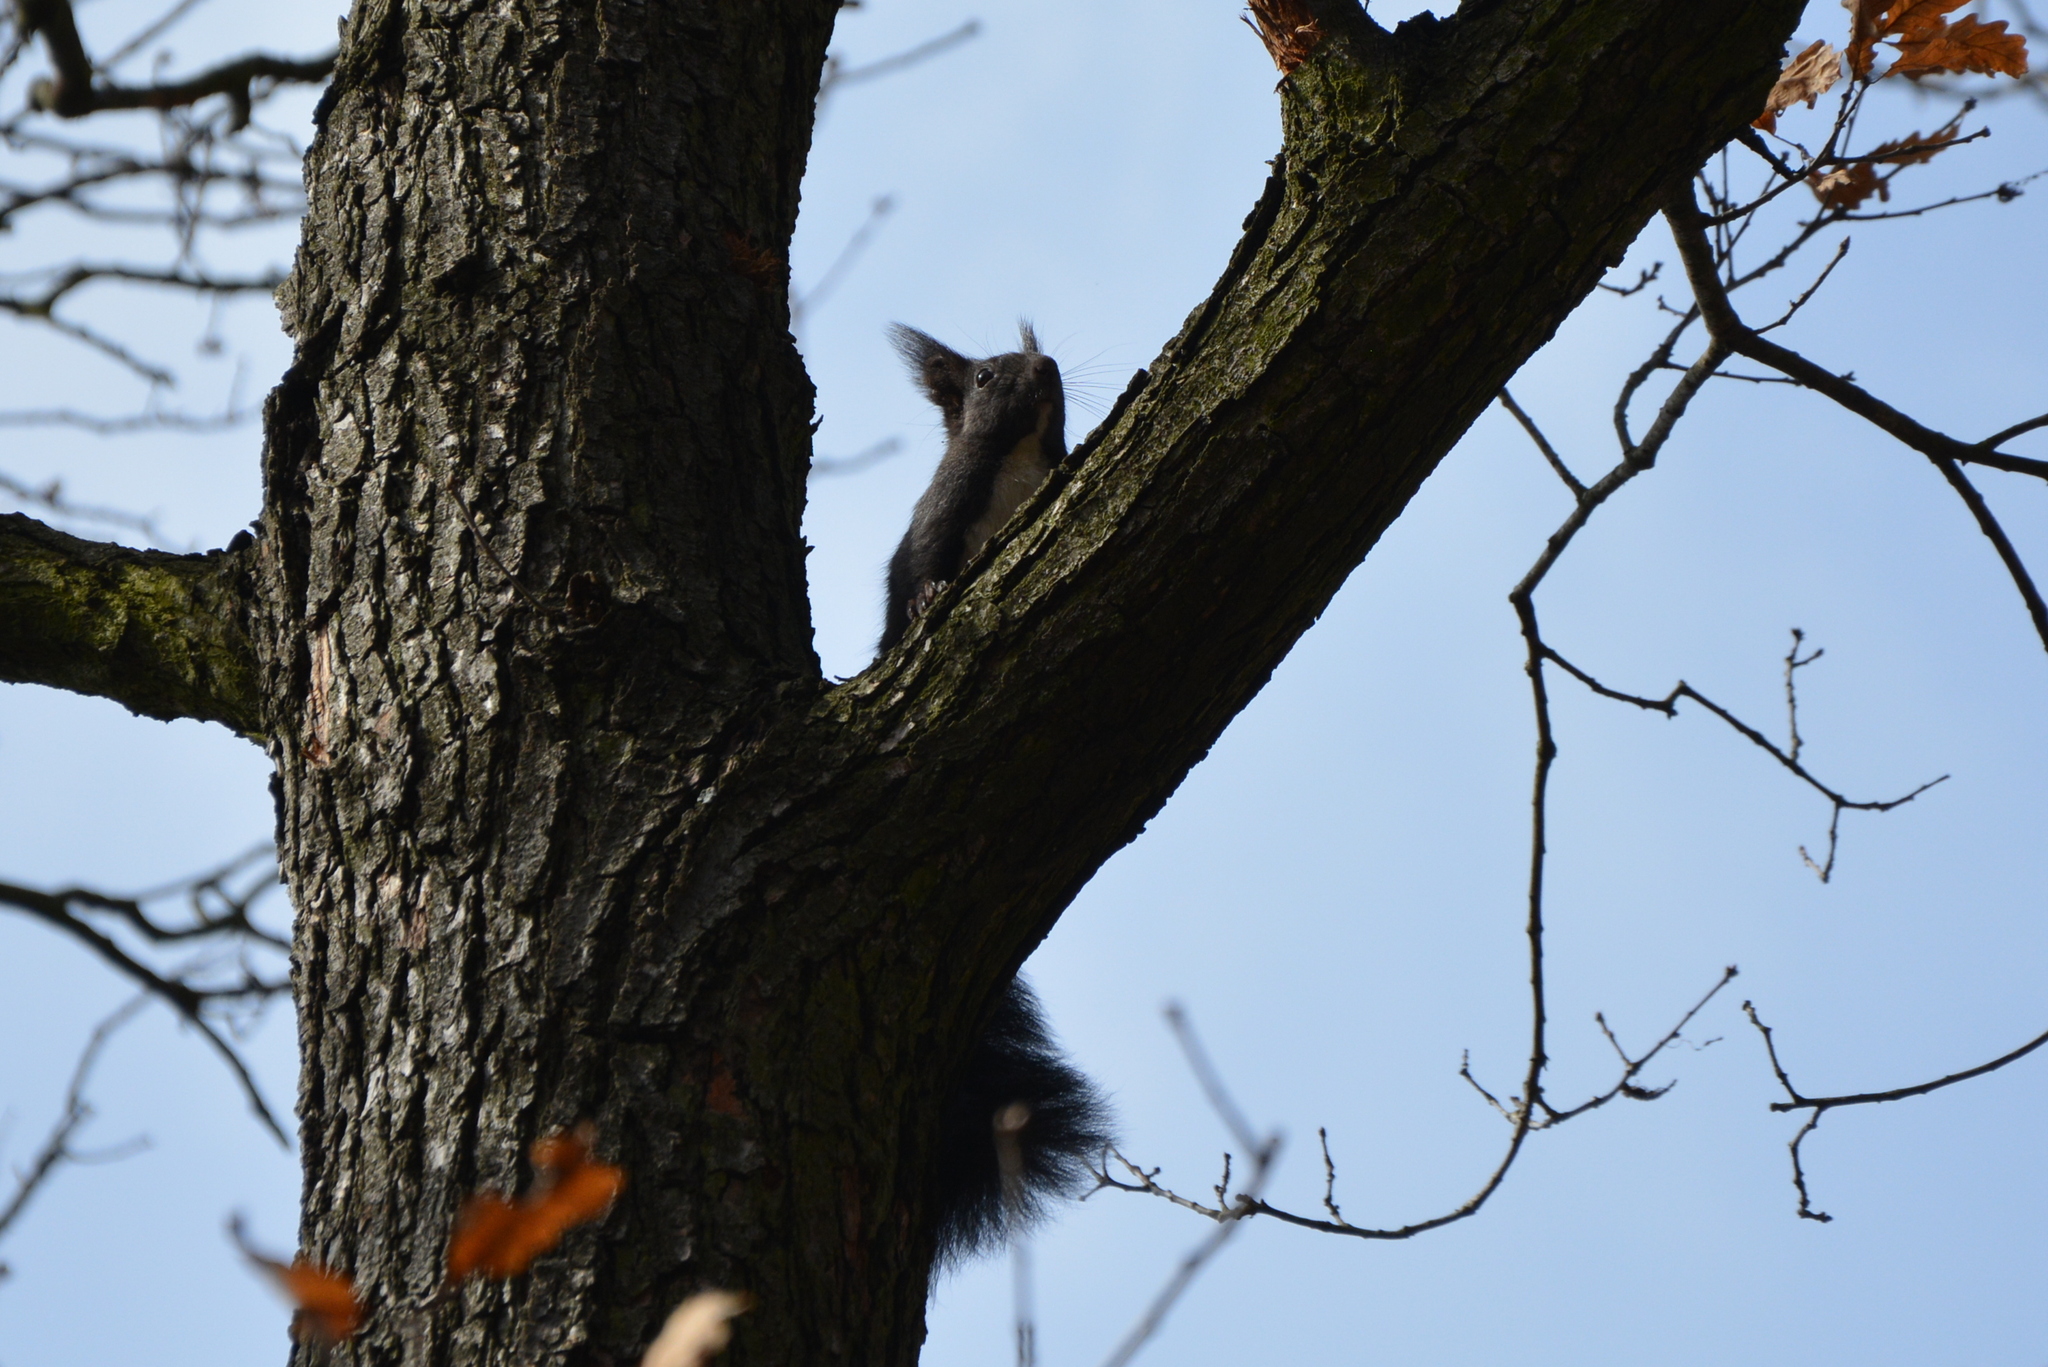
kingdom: Animalia
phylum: Chordata
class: Mammalia
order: Rodentia
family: Sciuridae
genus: Sciurus
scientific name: Sciurus vulgaris
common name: Eurasian red squirrel
